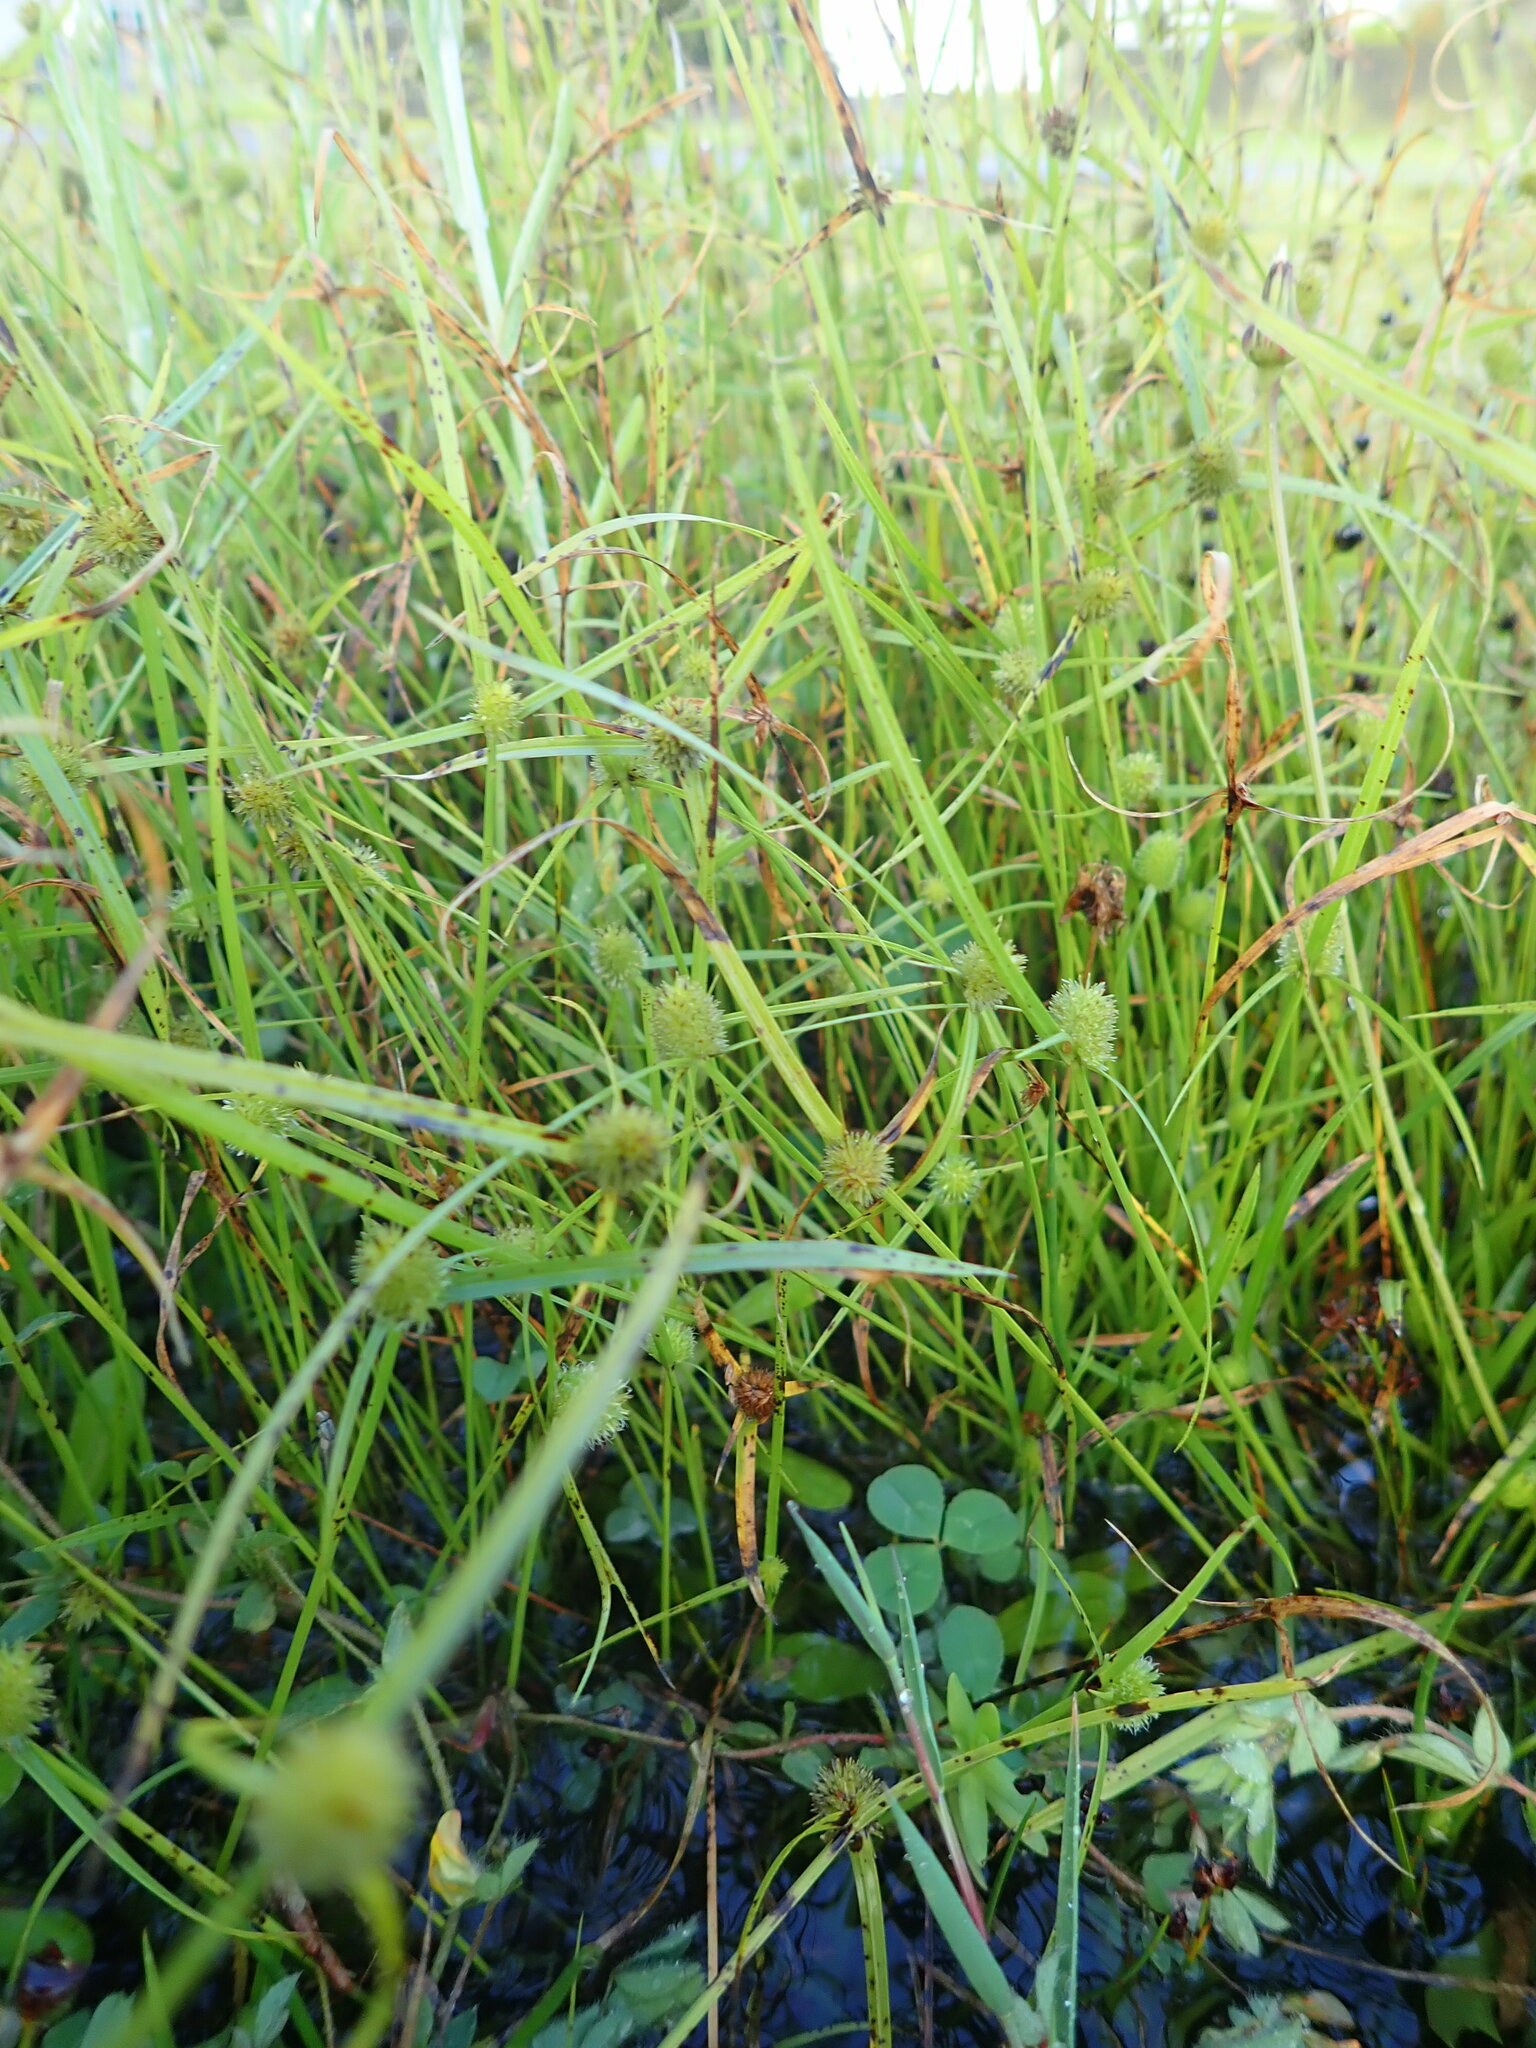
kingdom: Plantae
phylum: Tracheophyta
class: Liliopsida
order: Poales
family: Cyperaceae
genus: Cyperus
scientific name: Cyperus brevifolius
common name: Globe kyllinga
